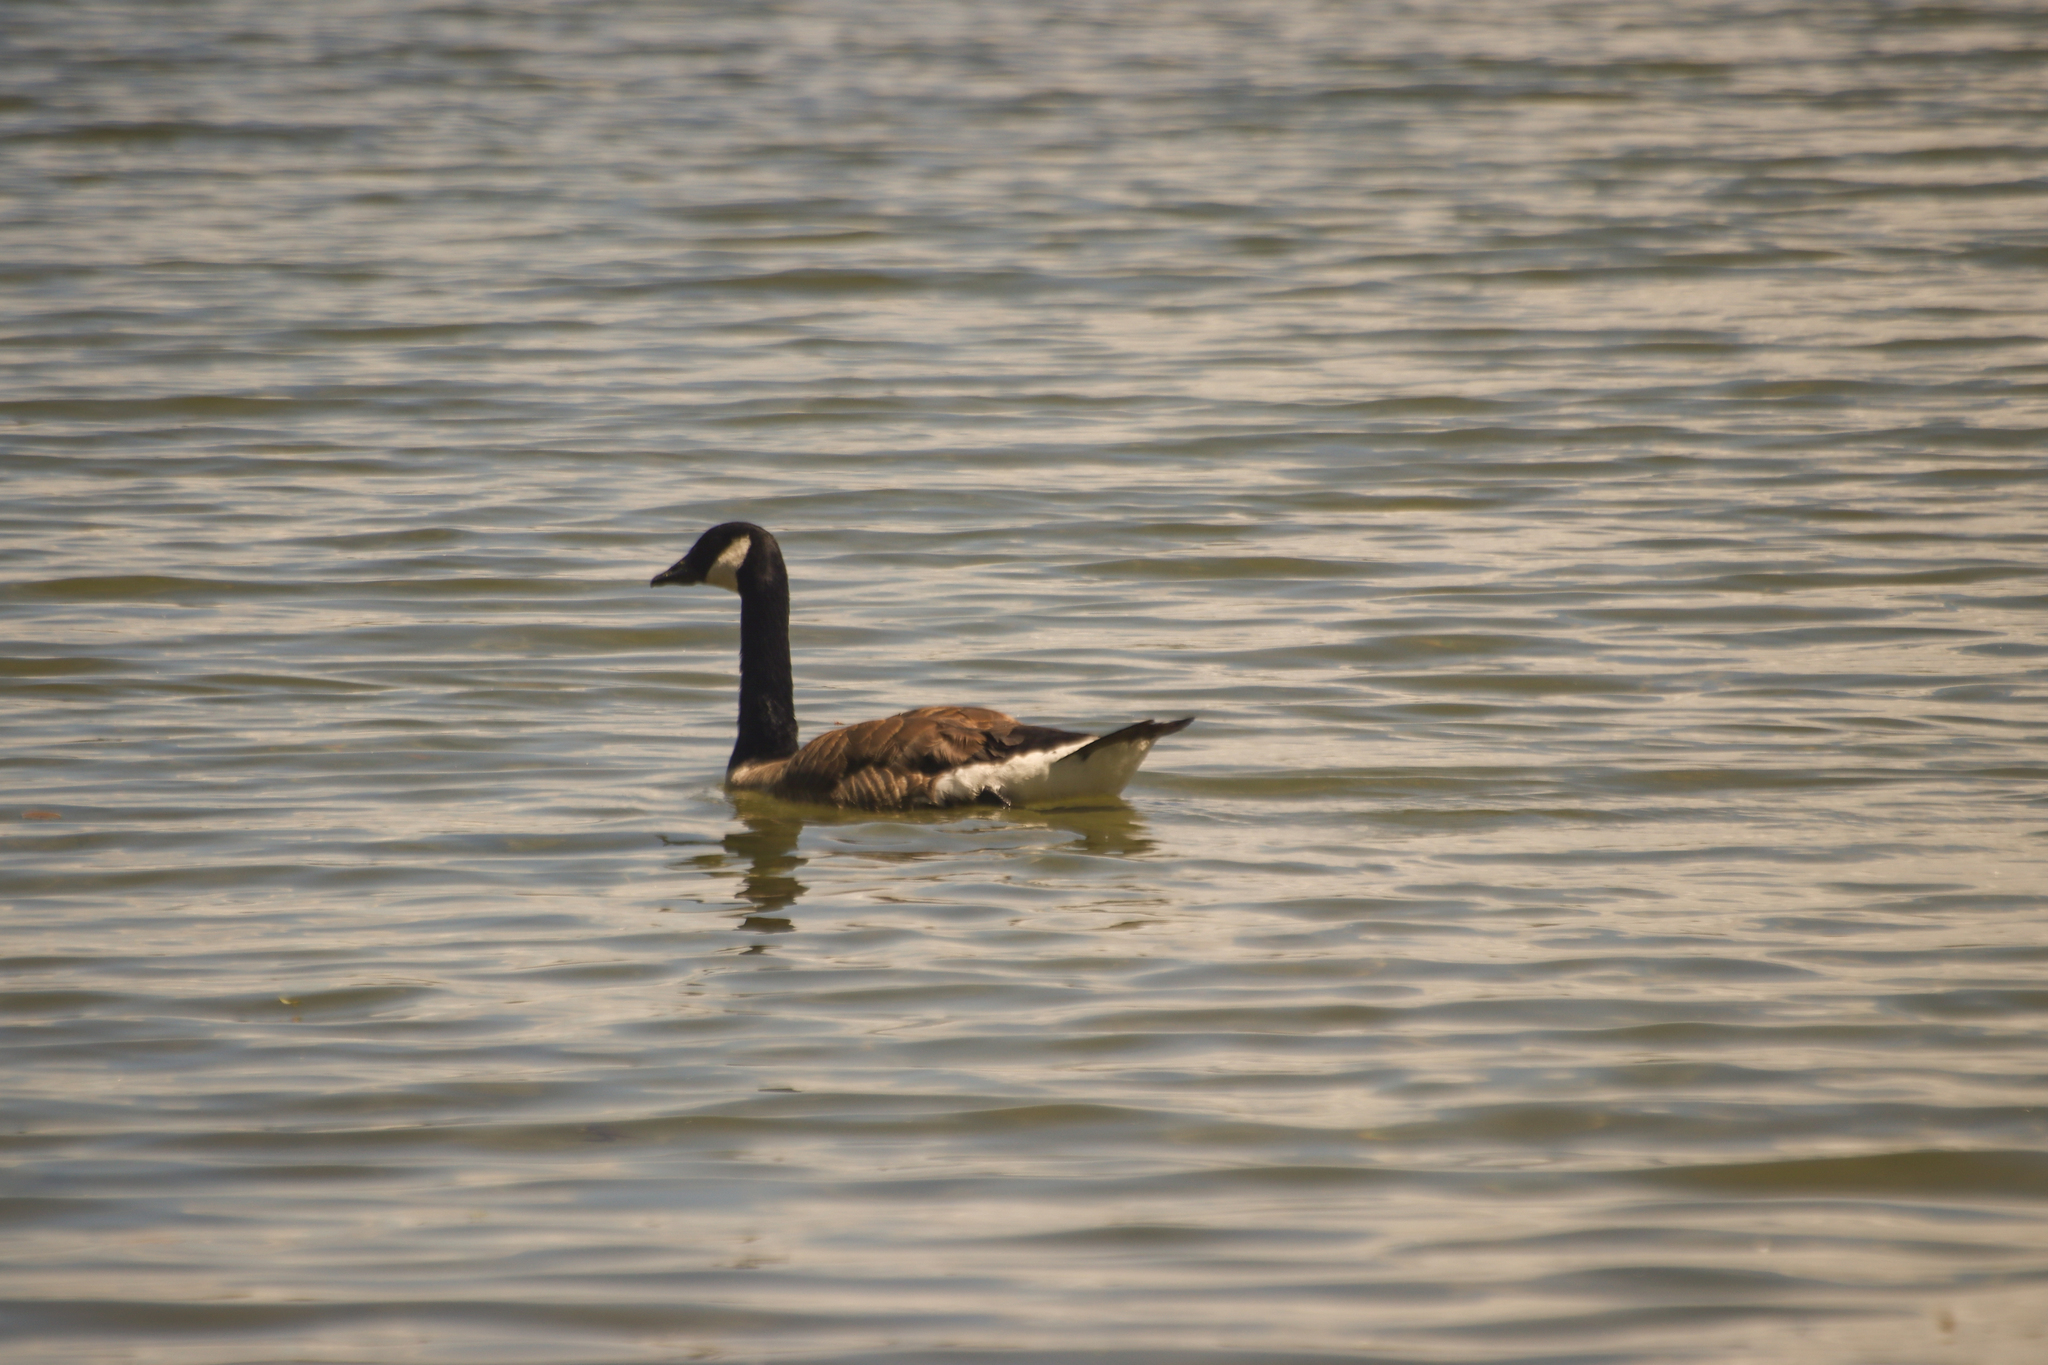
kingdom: Animalia
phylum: Chordata
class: Aves
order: Anseriformes
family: Anatidae
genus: Branta
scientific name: Branta canadensis
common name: Canada goose
